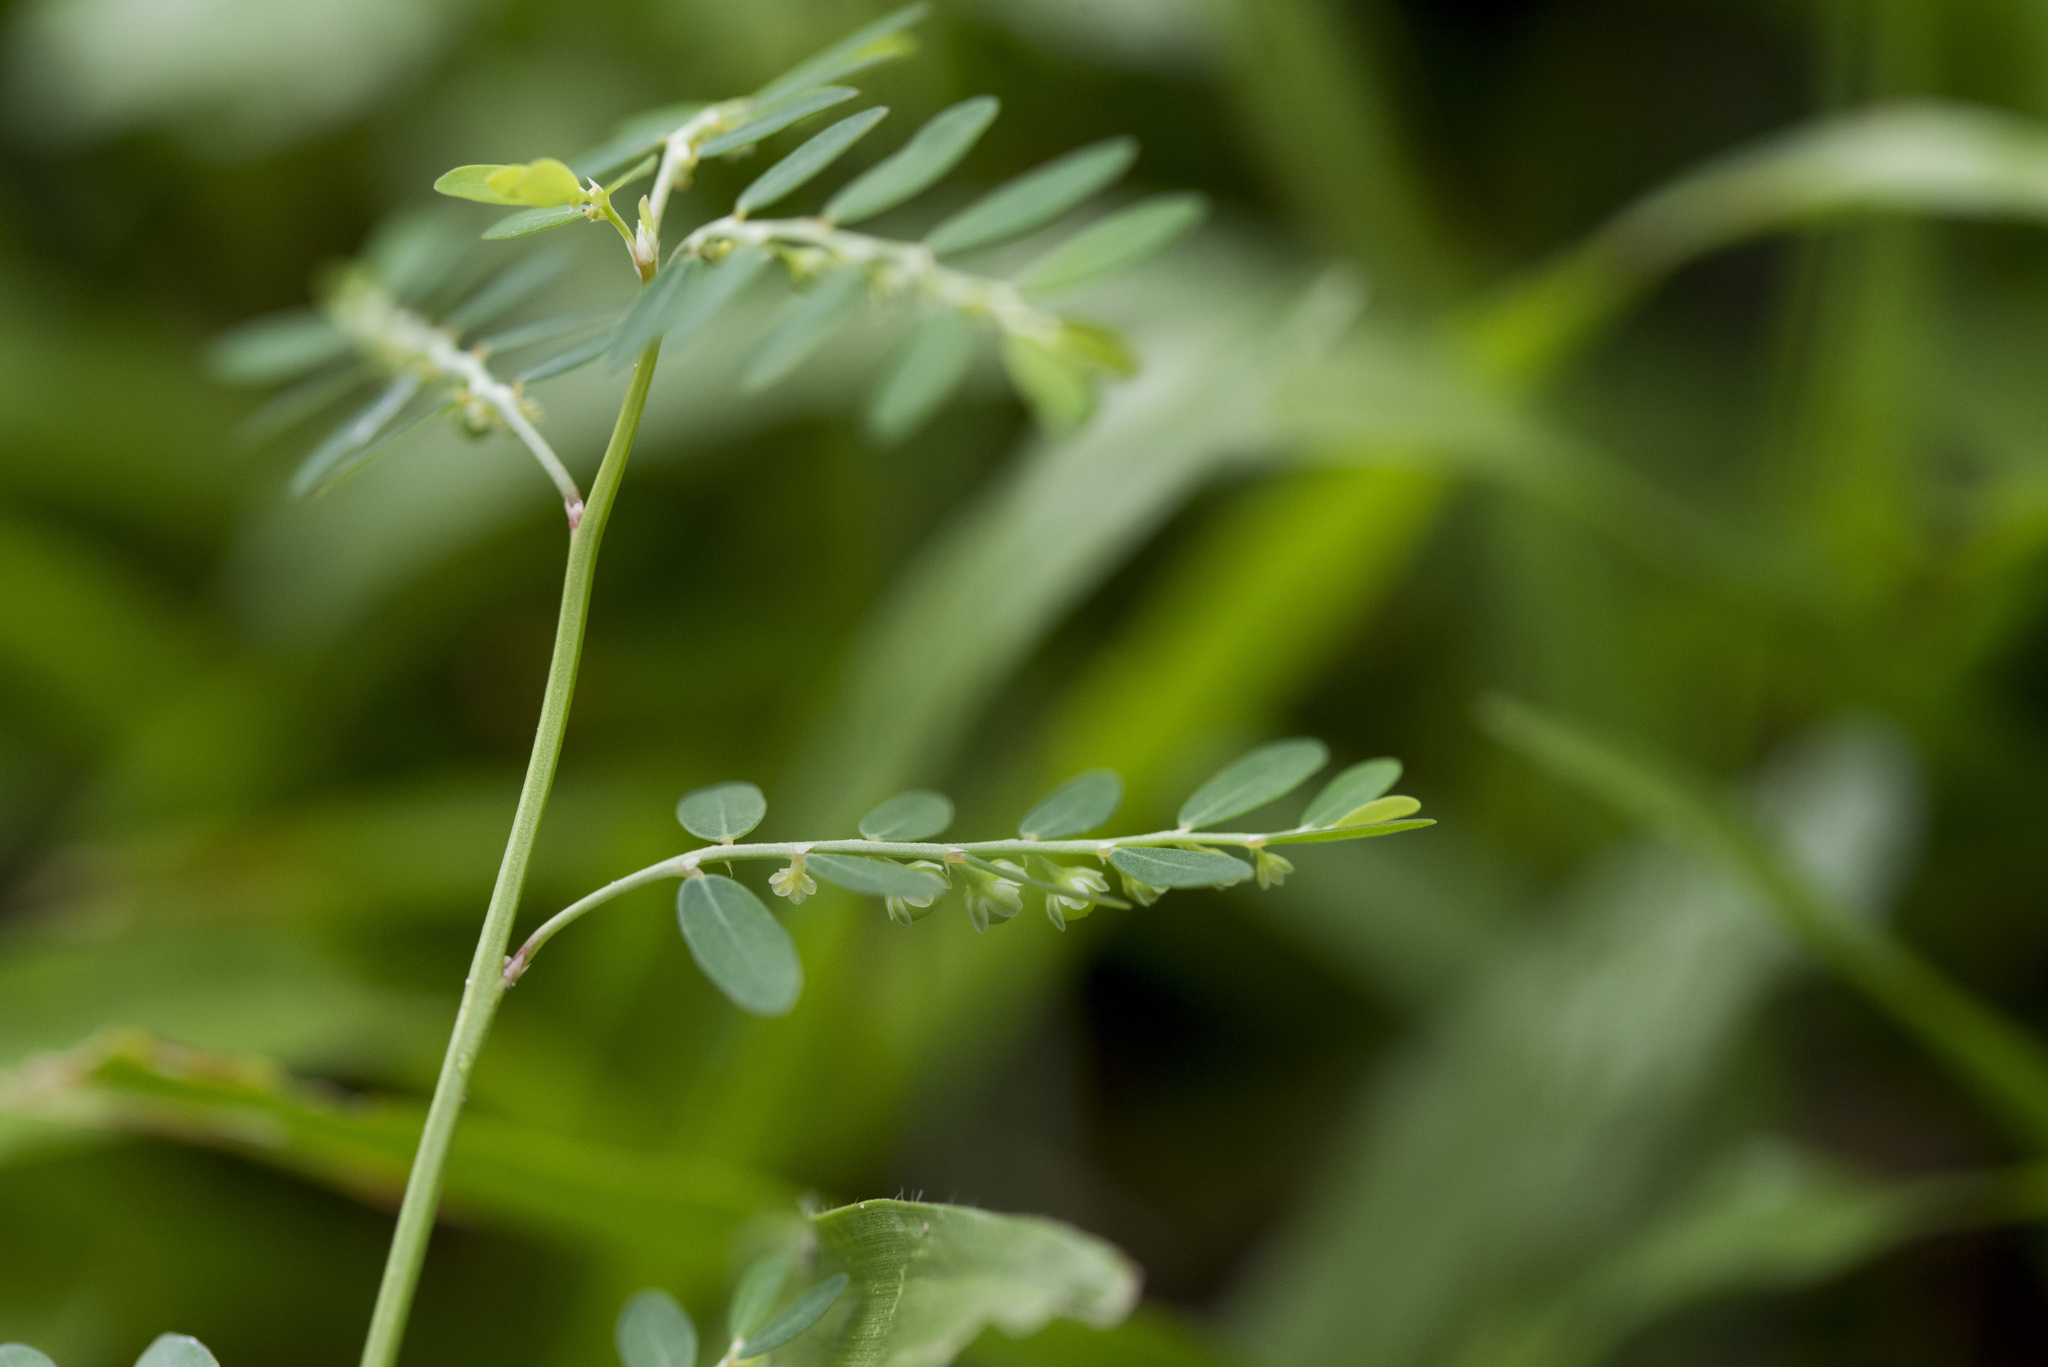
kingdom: Plantae
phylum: Tracheophyta
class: Magnoliopsida
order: Malpighiales
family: Phyllanthaceae
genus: Phyllanthus
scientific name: Phyllanthus debilis
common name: Niruri
